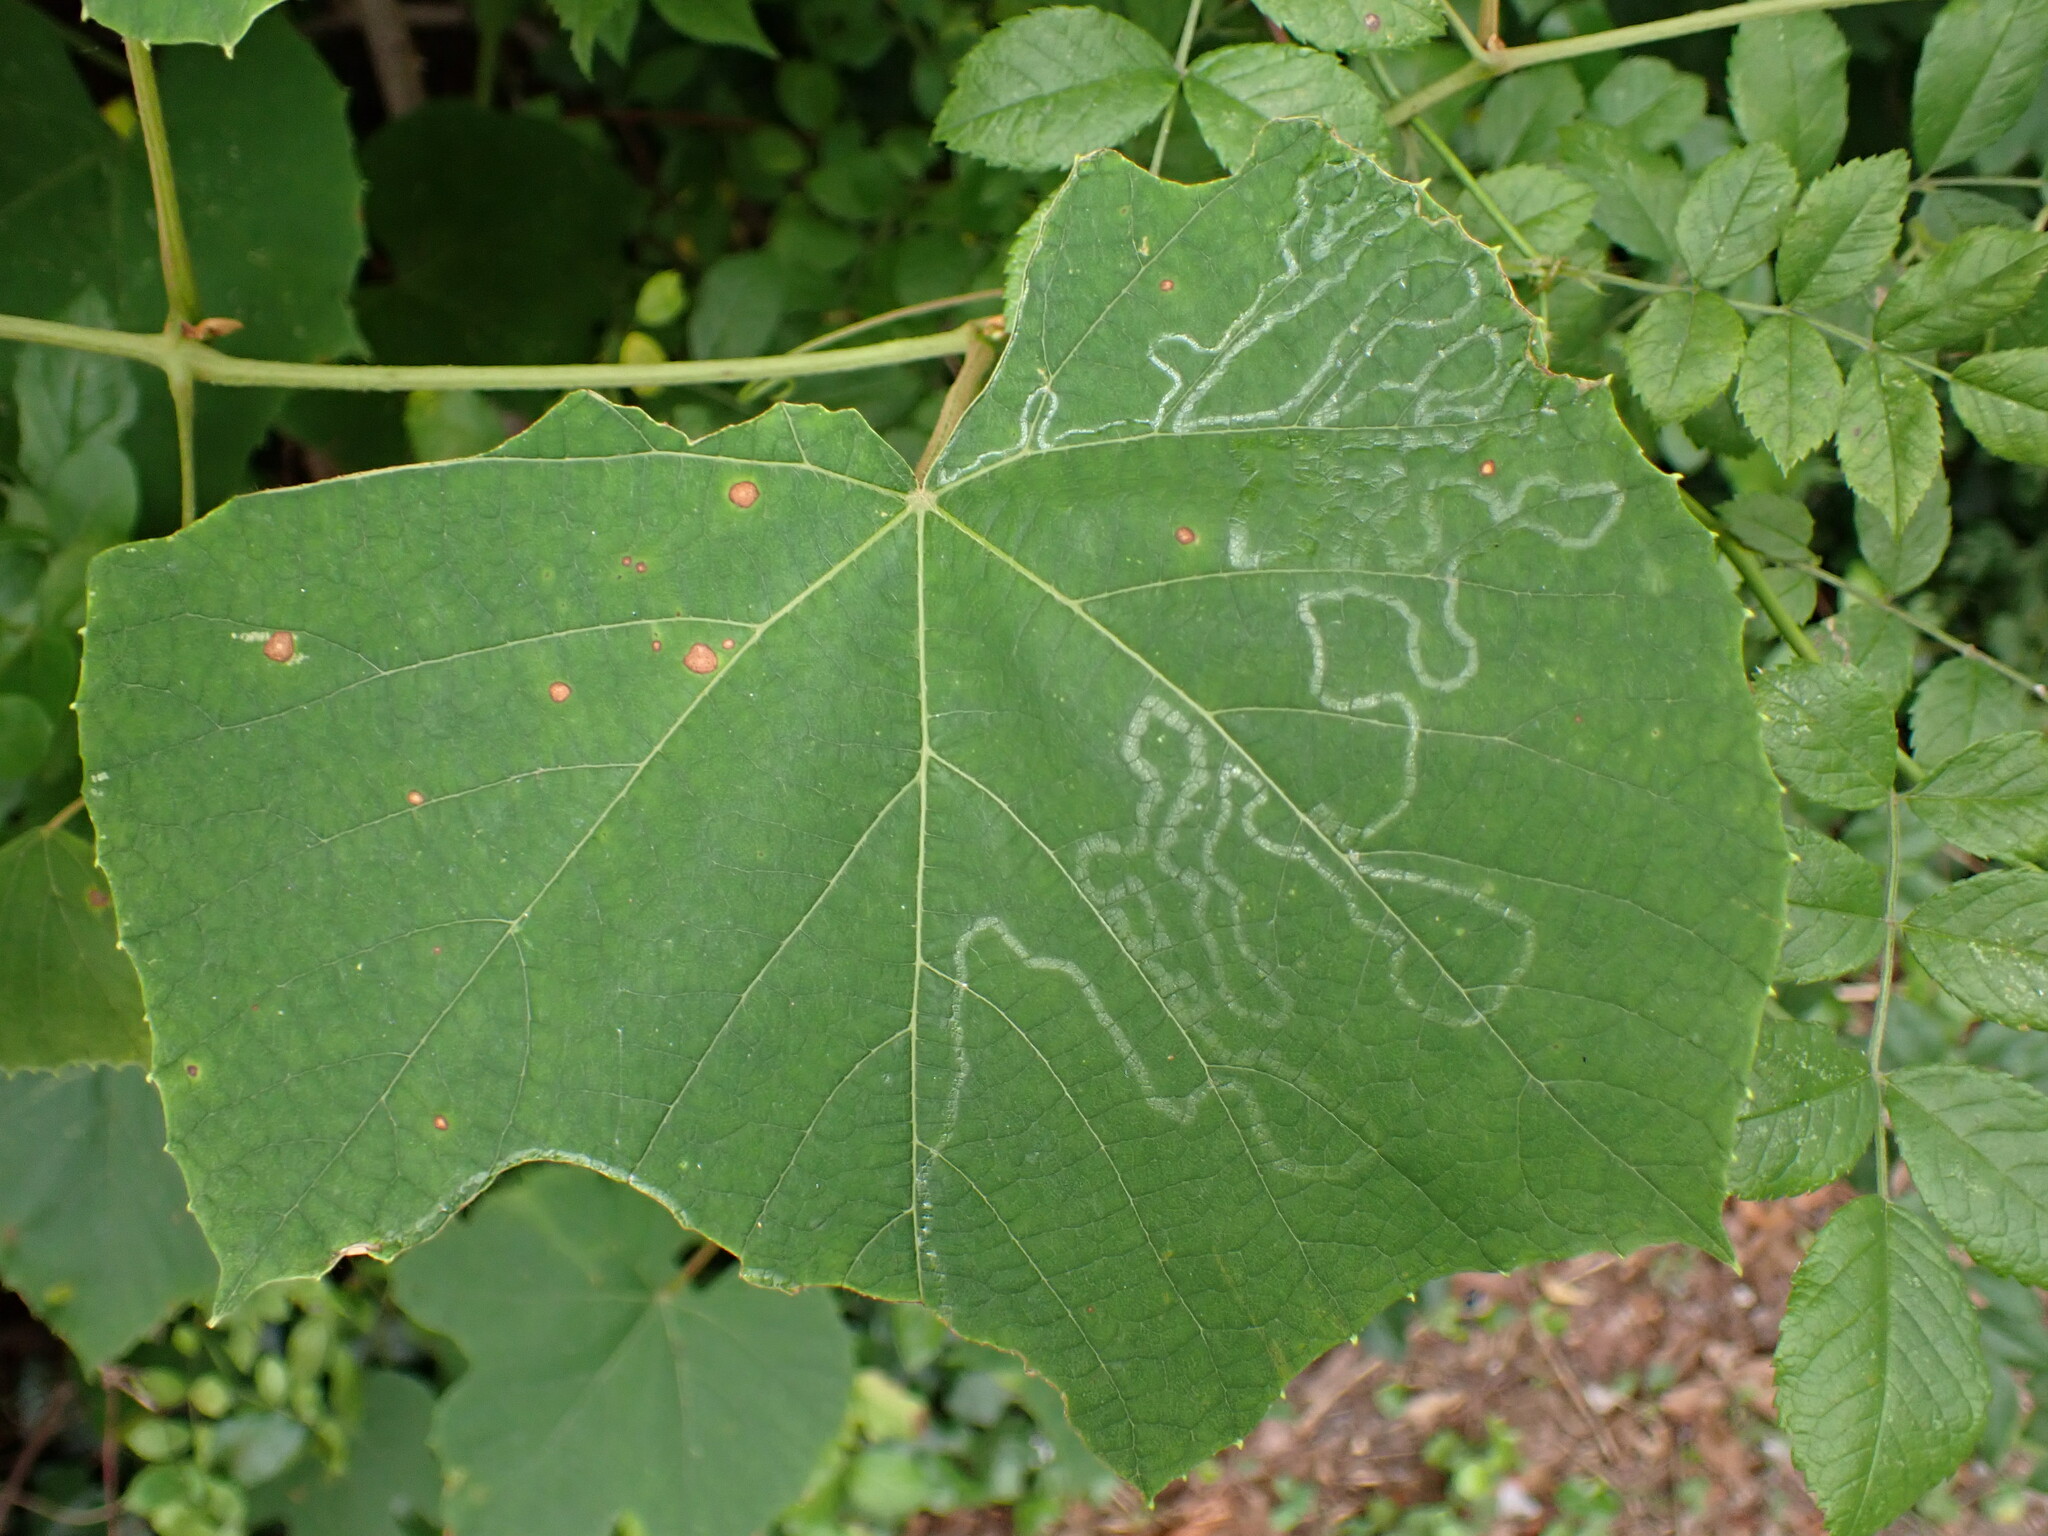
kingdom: Animalia
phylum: Arthropoda
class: Insecta
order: Lepidoptera
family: Gracillariidae
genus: Phyllocnistis
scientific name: Phyllocnistis vitegenella
